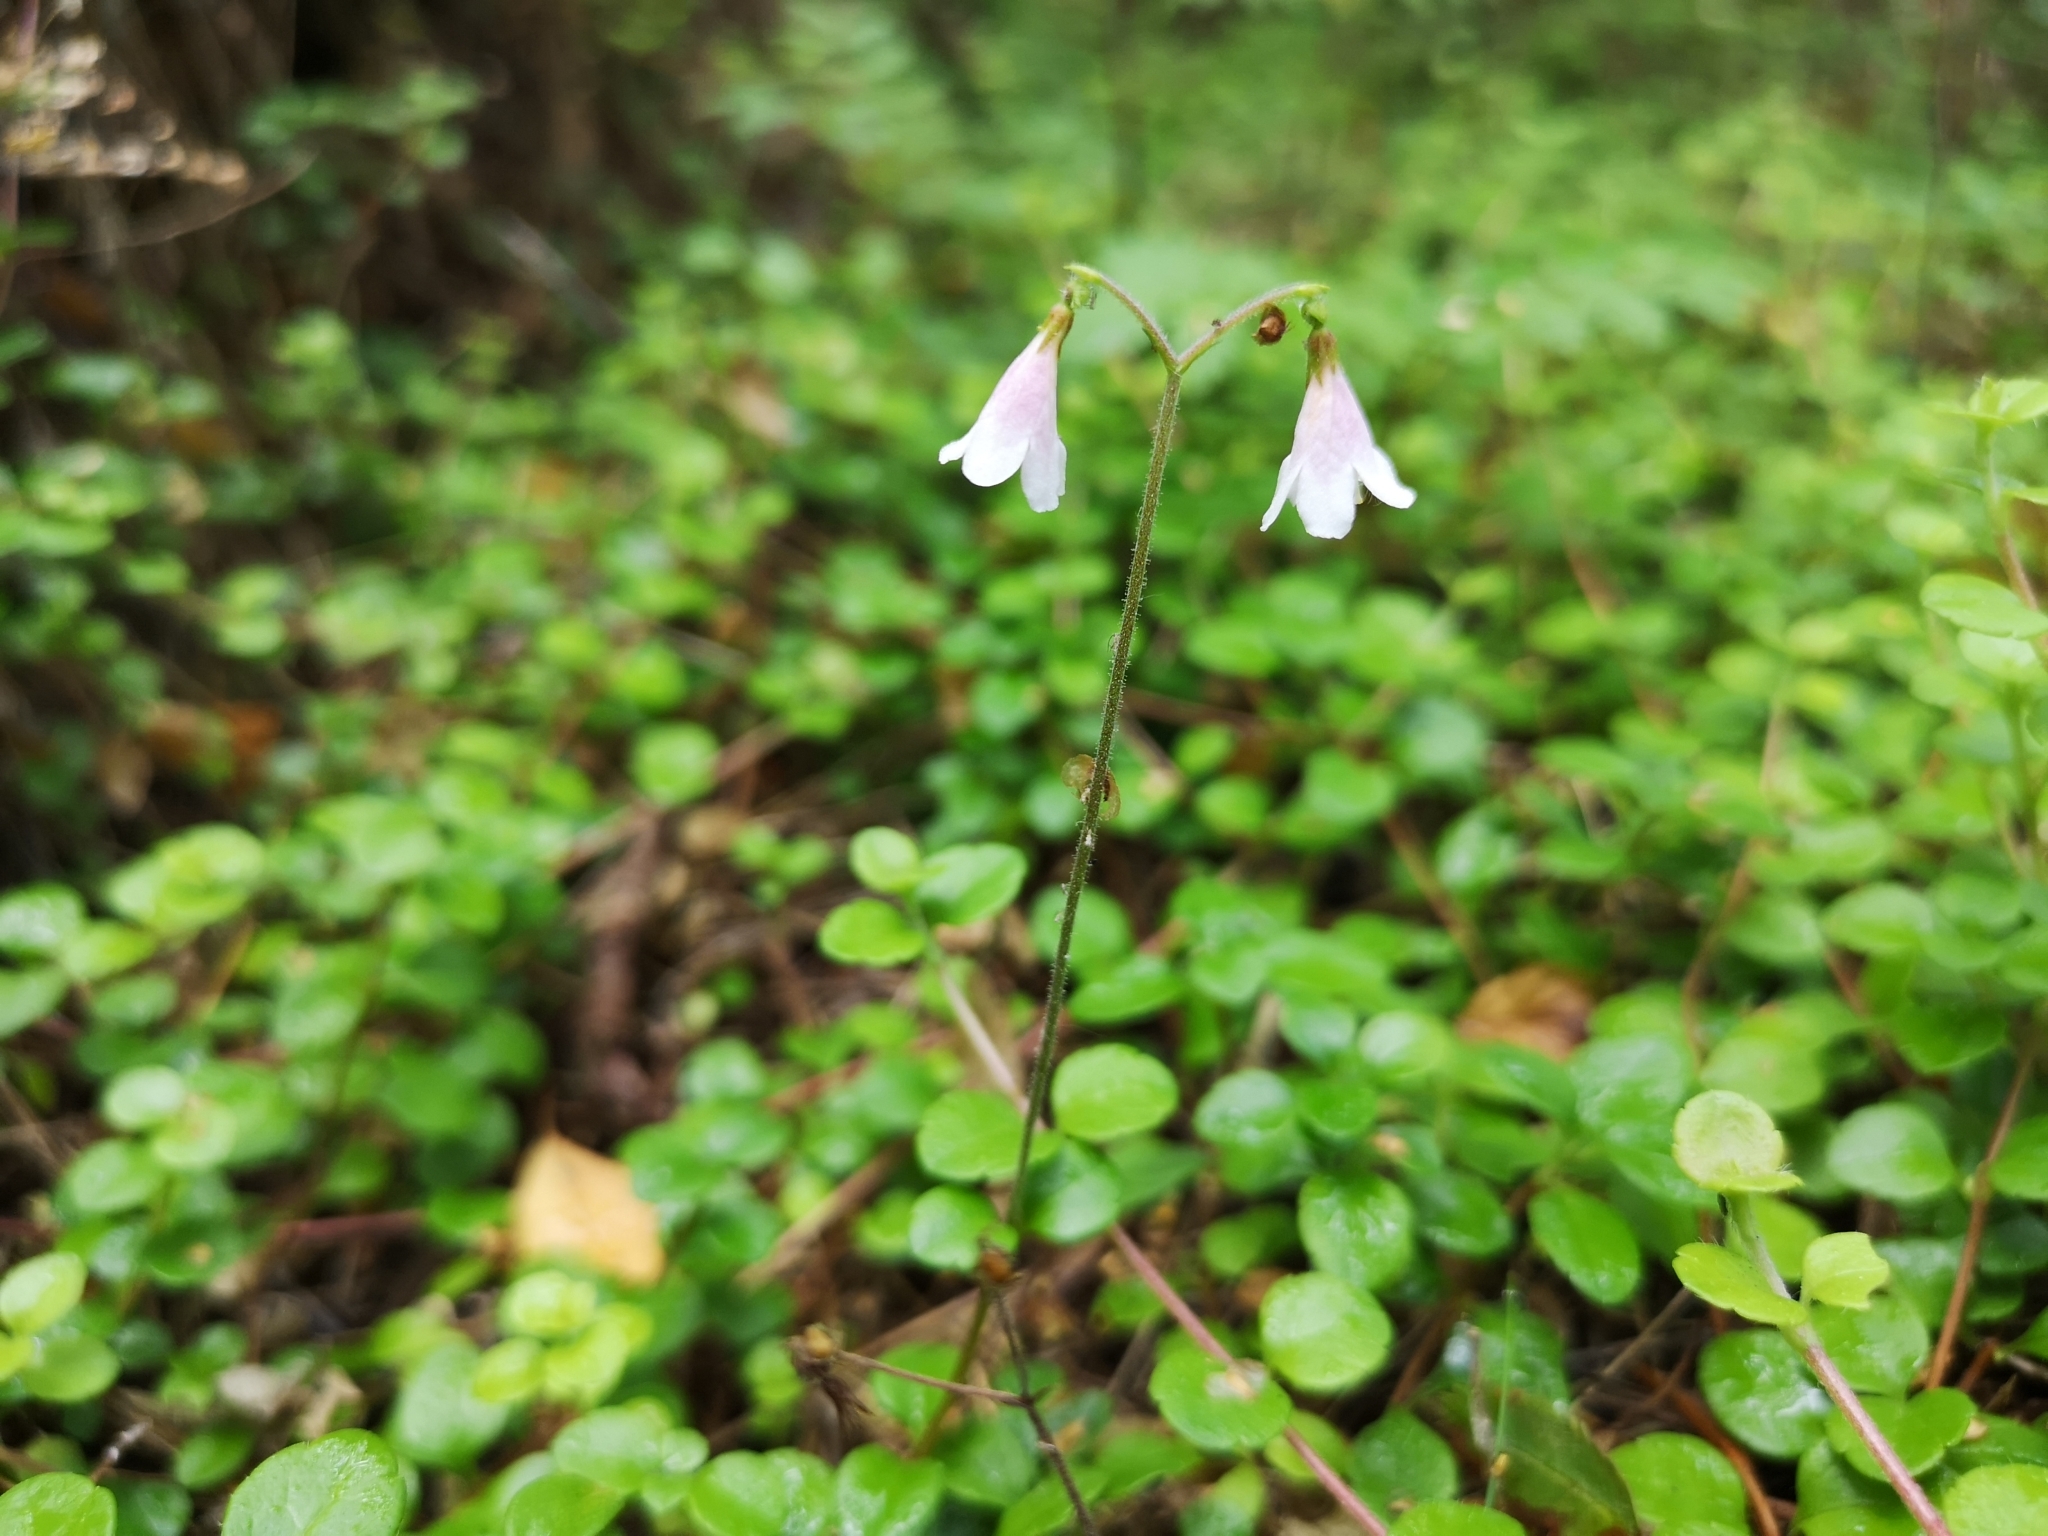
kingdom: Plantae
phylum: Tracheophyta
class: Magnoliopsida
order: Dipsacales
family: Caprifoliaceae
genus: Linnaea
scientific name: Linnaea borealis
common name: Twinflower
